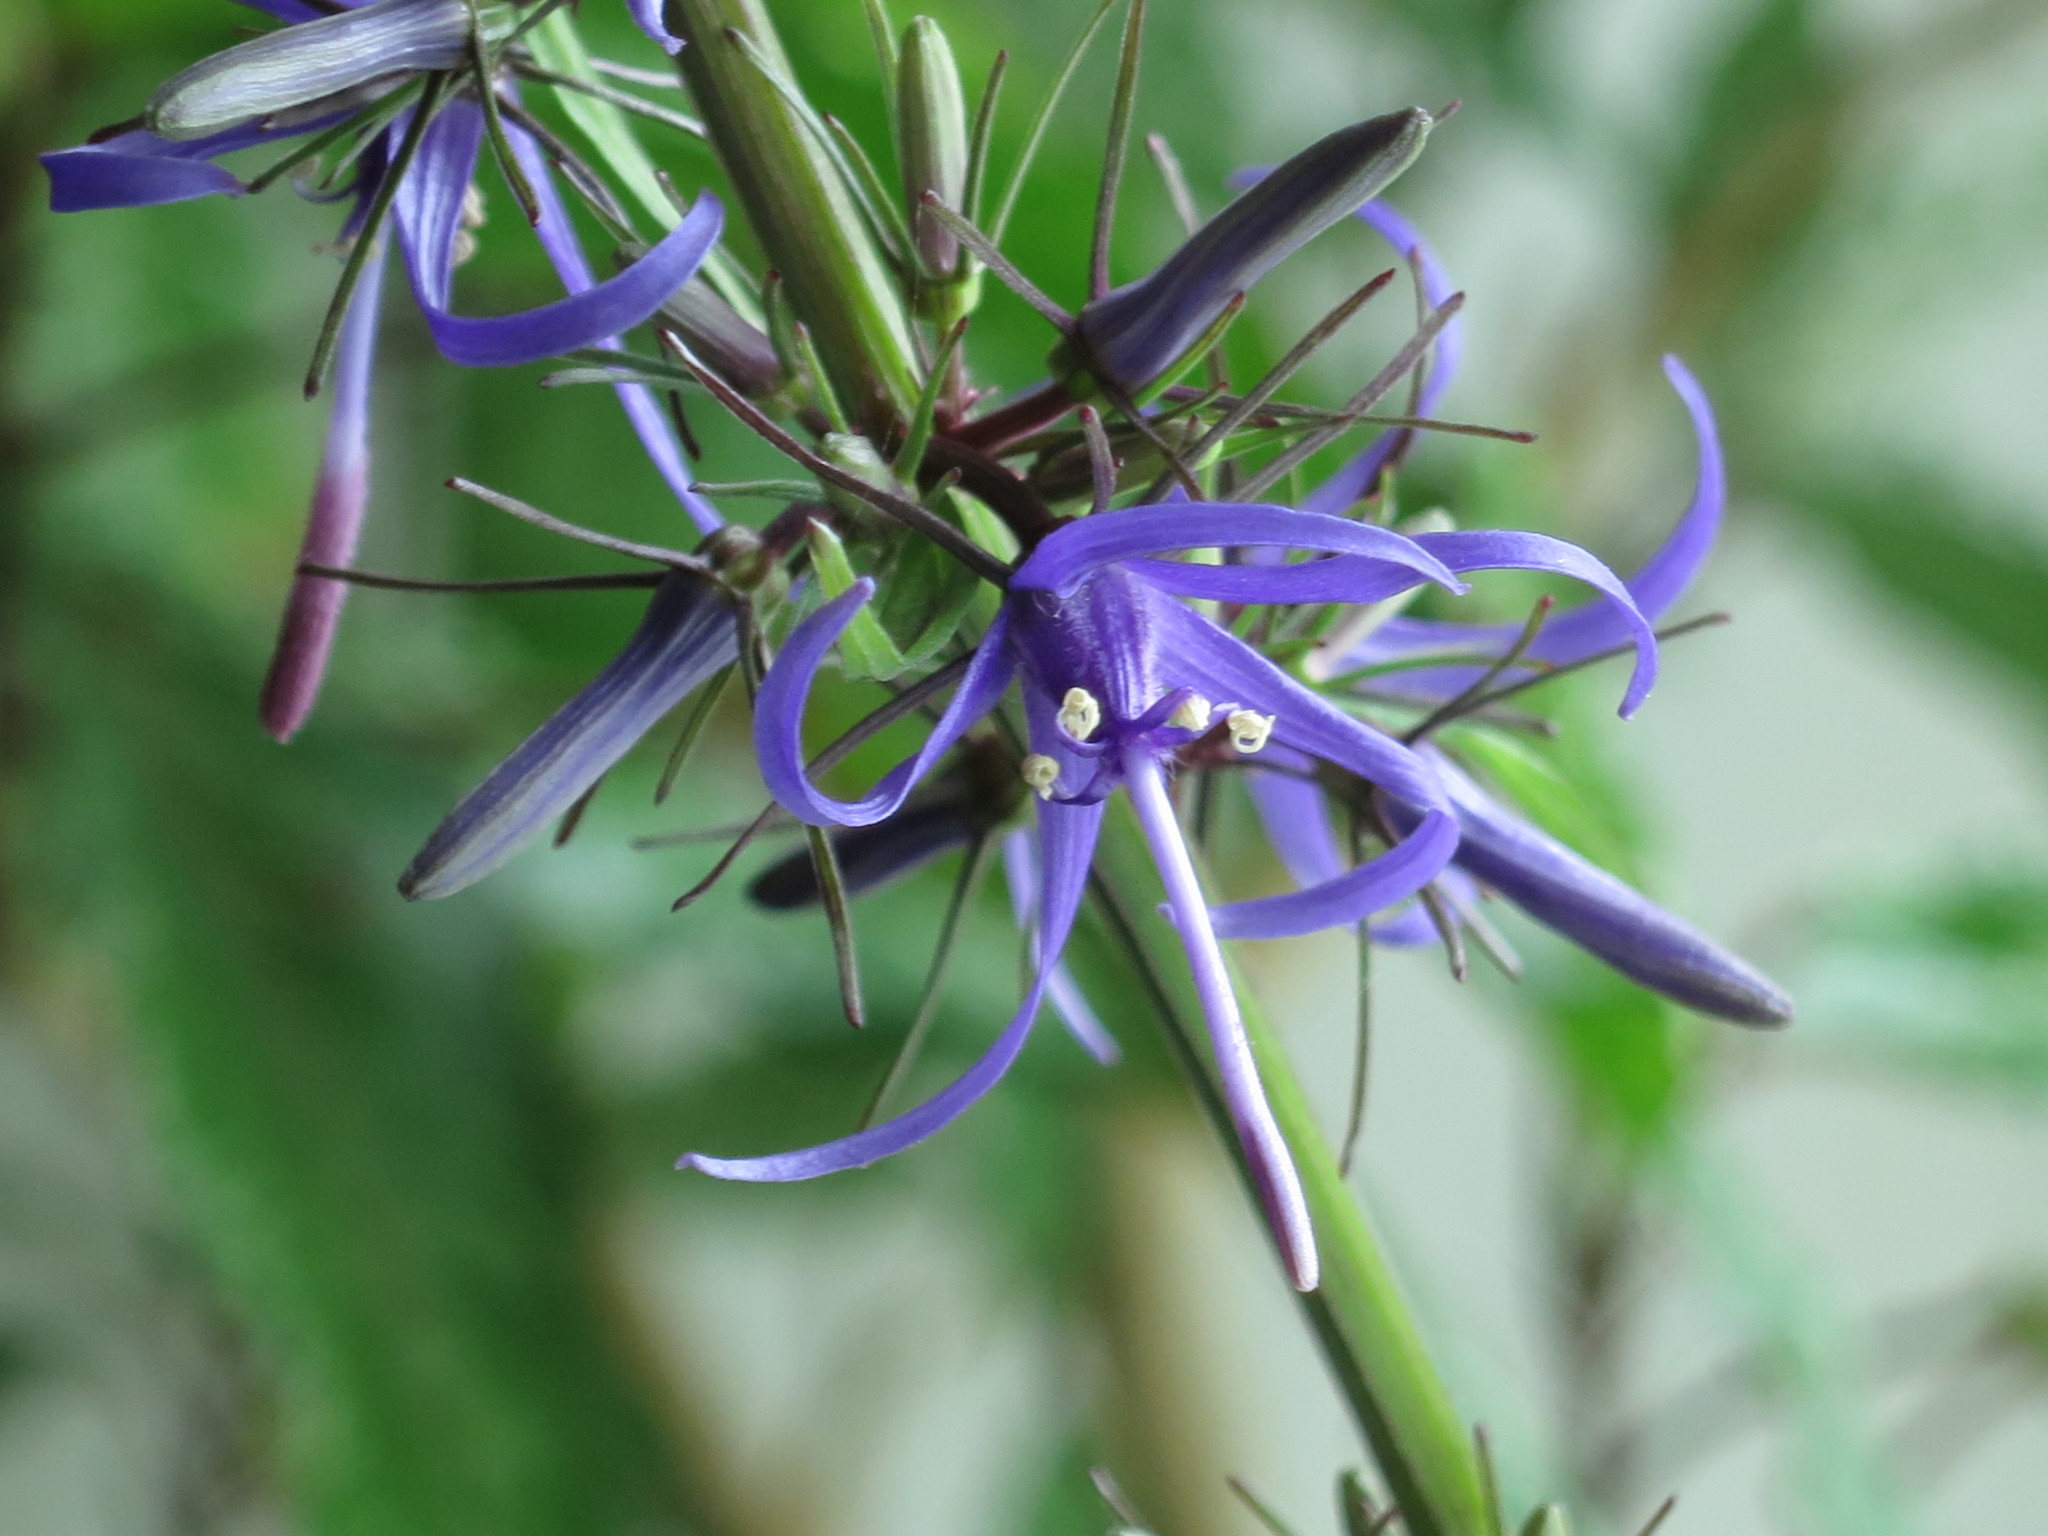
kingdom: Plantae
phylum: Tracheophyta
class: Magnoliopsida
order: Asterales
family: Campanulaceae
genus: Asyneuma
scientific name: Asyneuma japonicum
